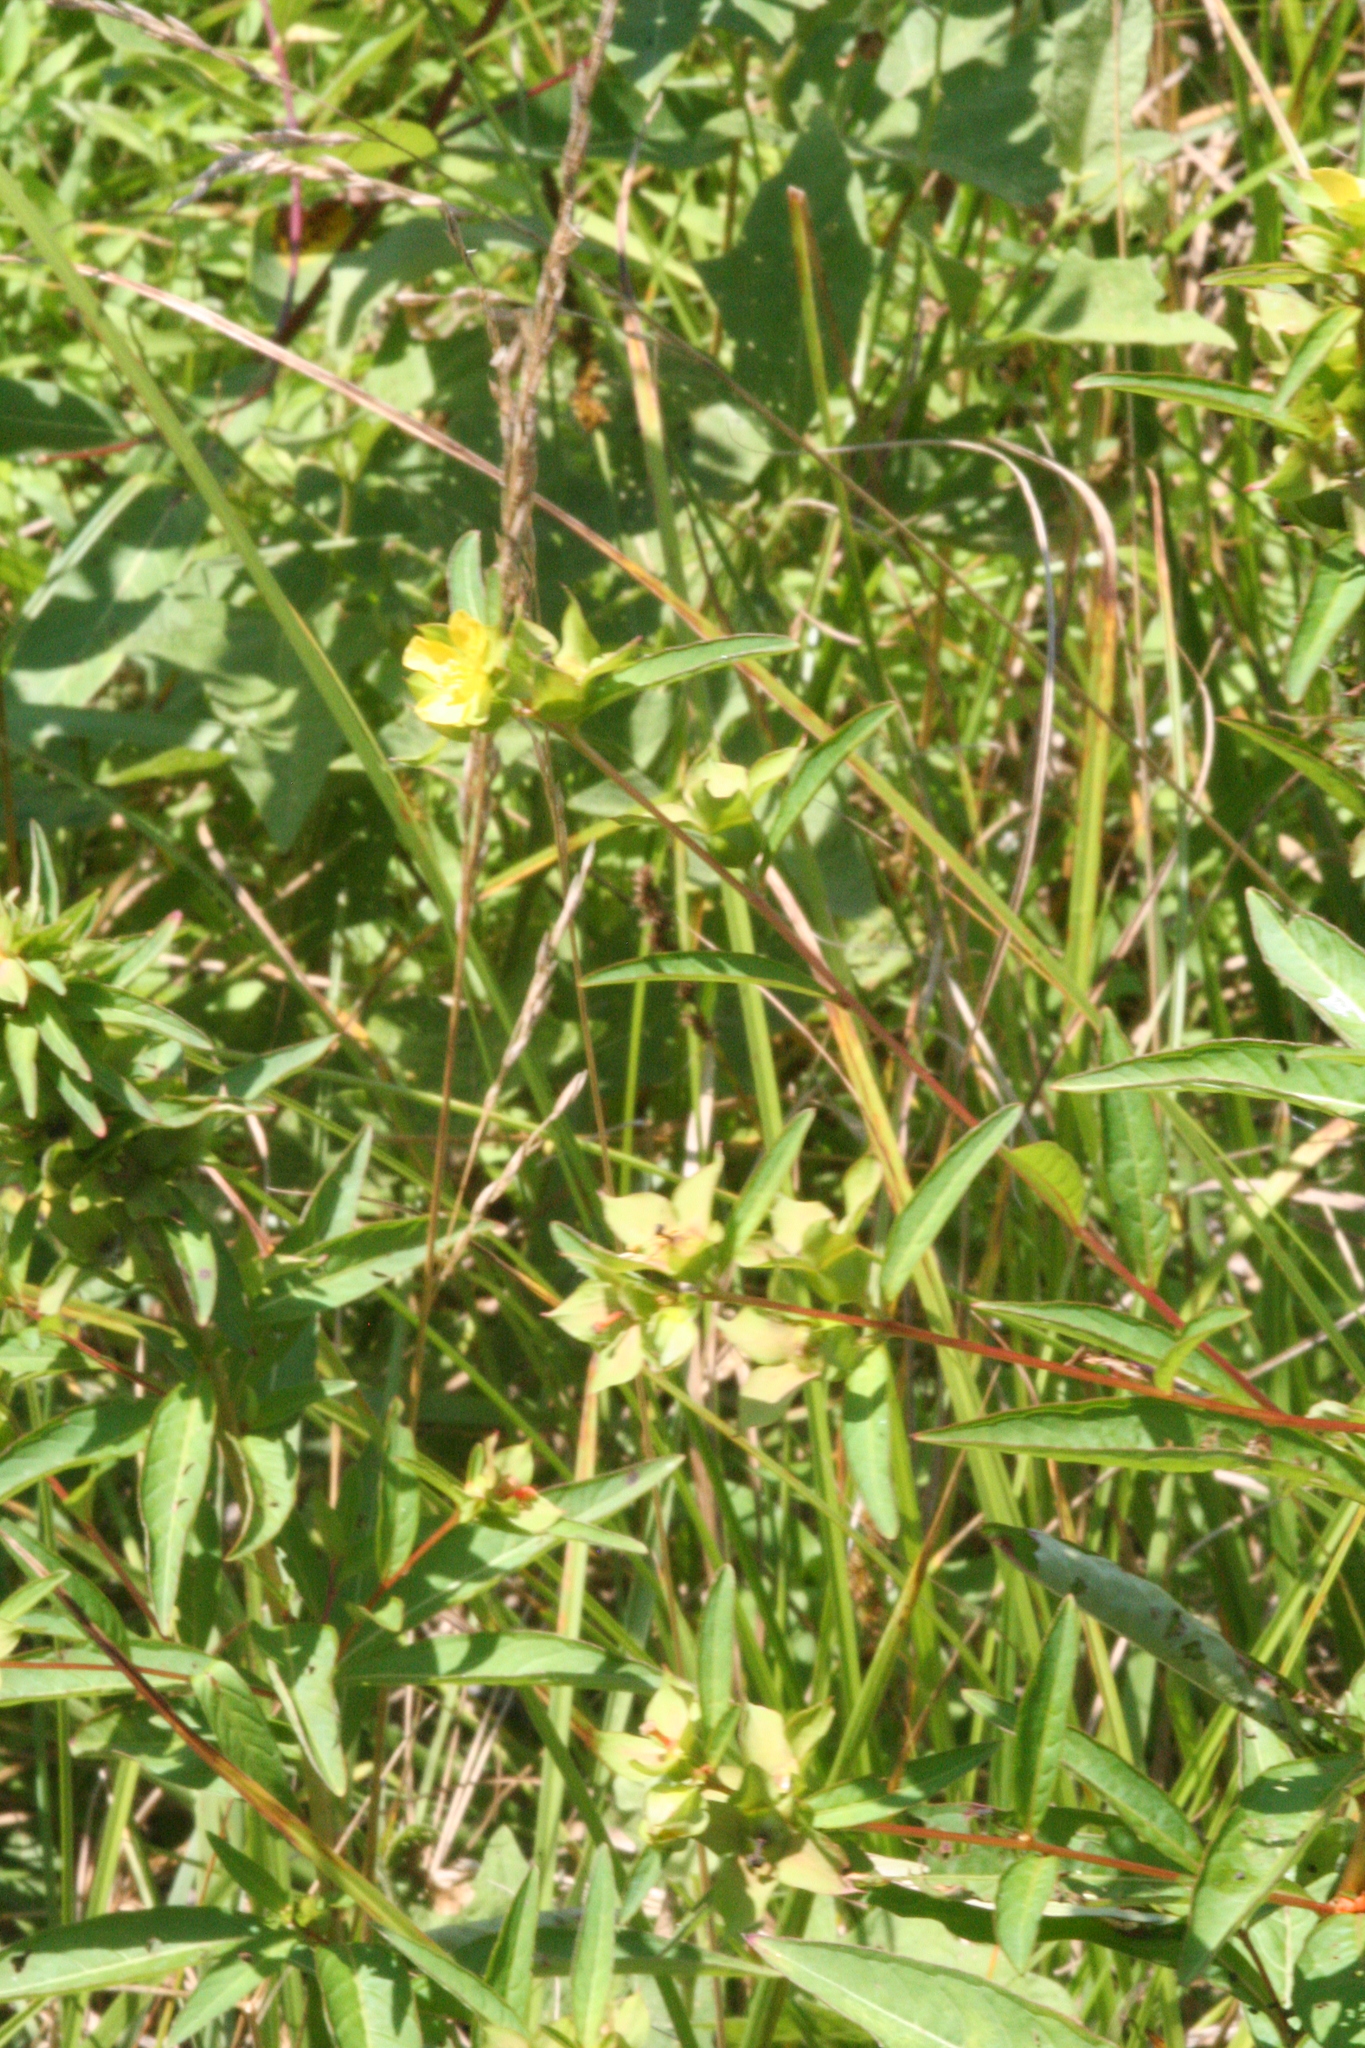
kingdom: Plantae
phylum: Tracheophyta
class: Magnoliopsida
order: Myrtales
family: Onagraceae
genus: Ludwigia
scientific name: Ludwigia alternifolia
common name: Rattlebox
